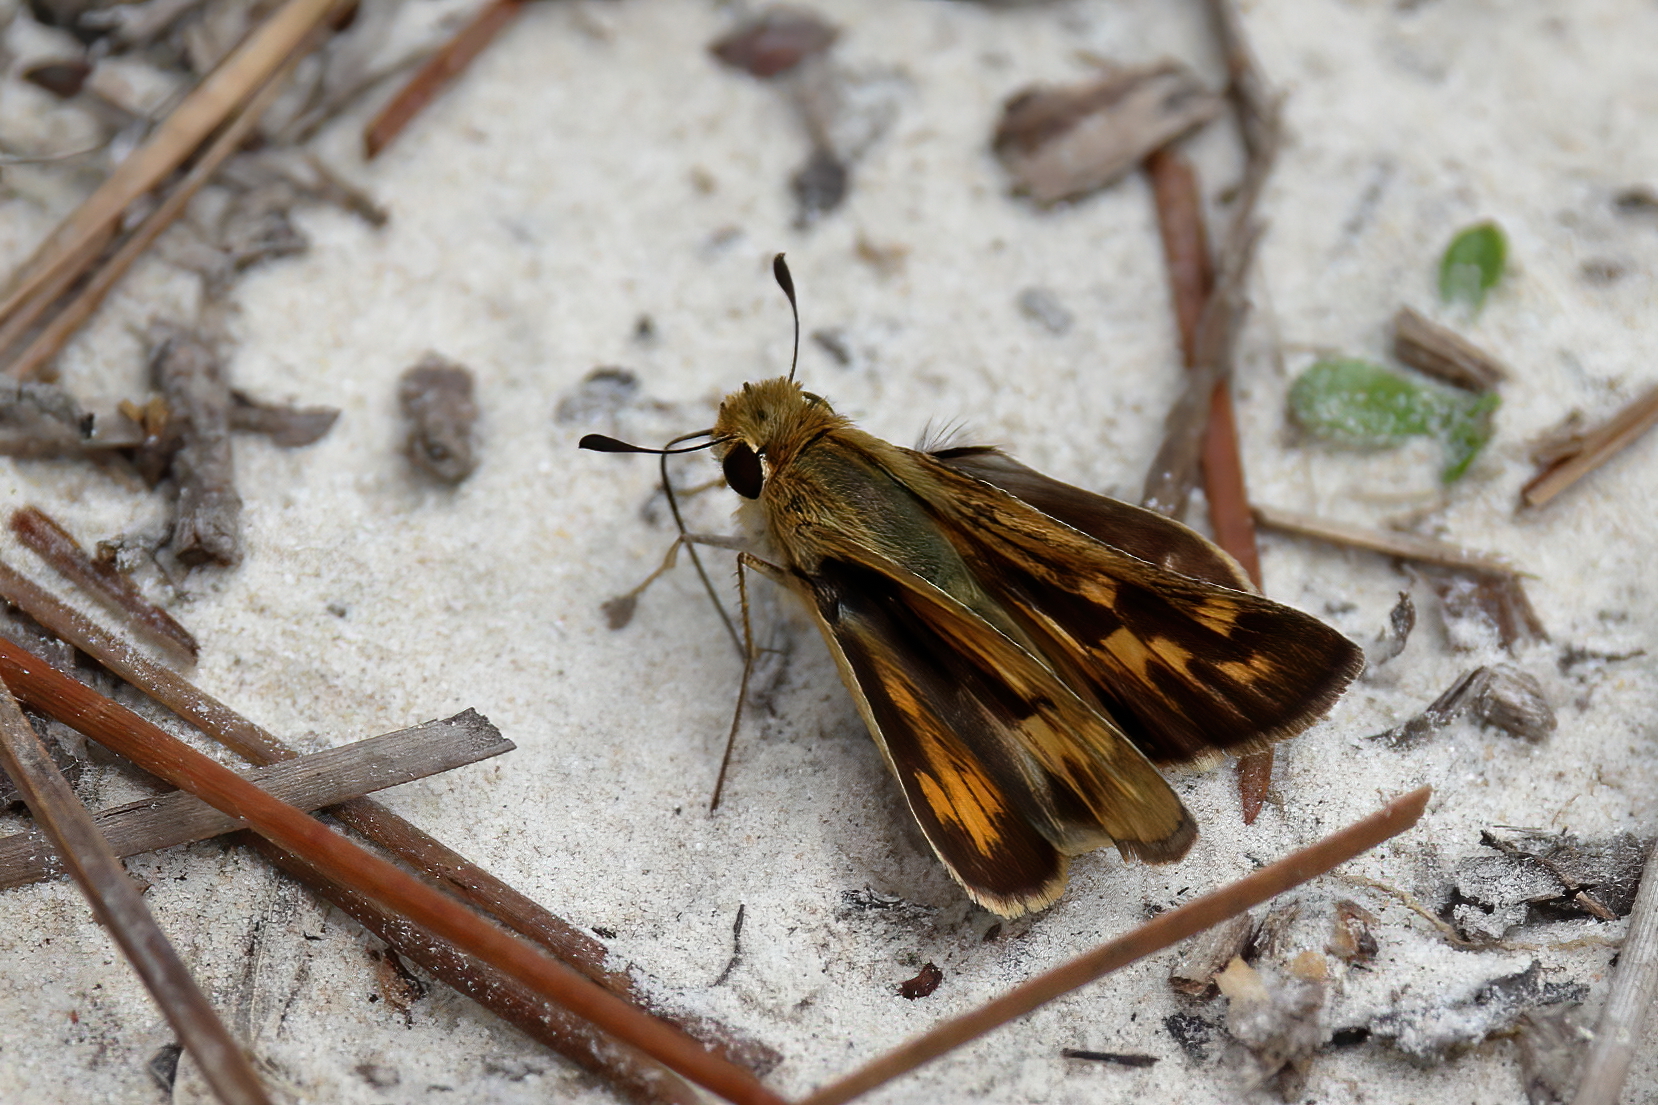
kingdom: Animalia
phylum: Arthropoda
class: Insecta
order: Lepidoptera
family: Hesperiidae
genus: Polites
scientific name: Polites vibex
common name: Whirlabout
